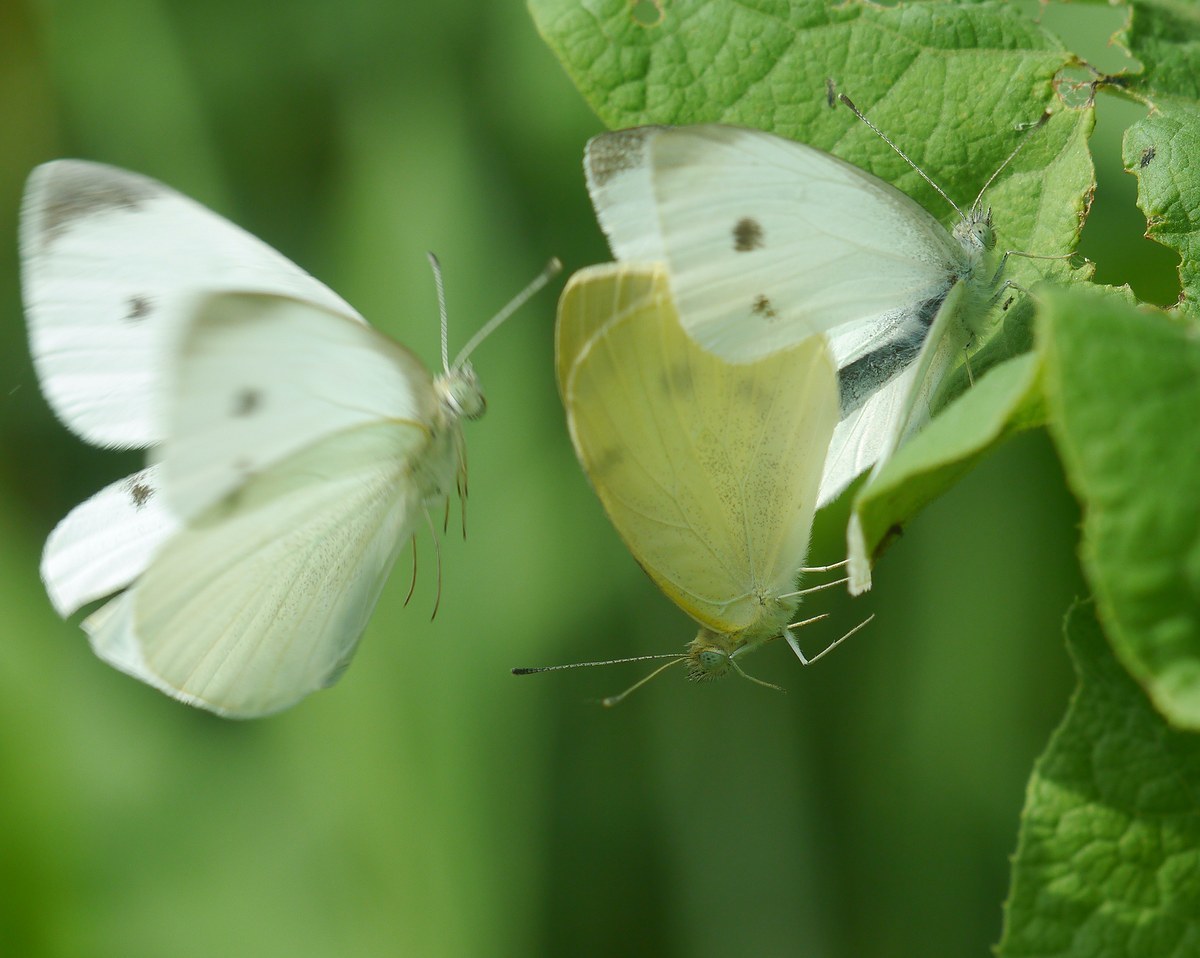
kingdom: Animalia
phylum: Arthropoda
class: Insecta
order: Lepidoptera
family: Pieridae
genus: Pieris
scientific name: Pieris rapae
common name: Small white
